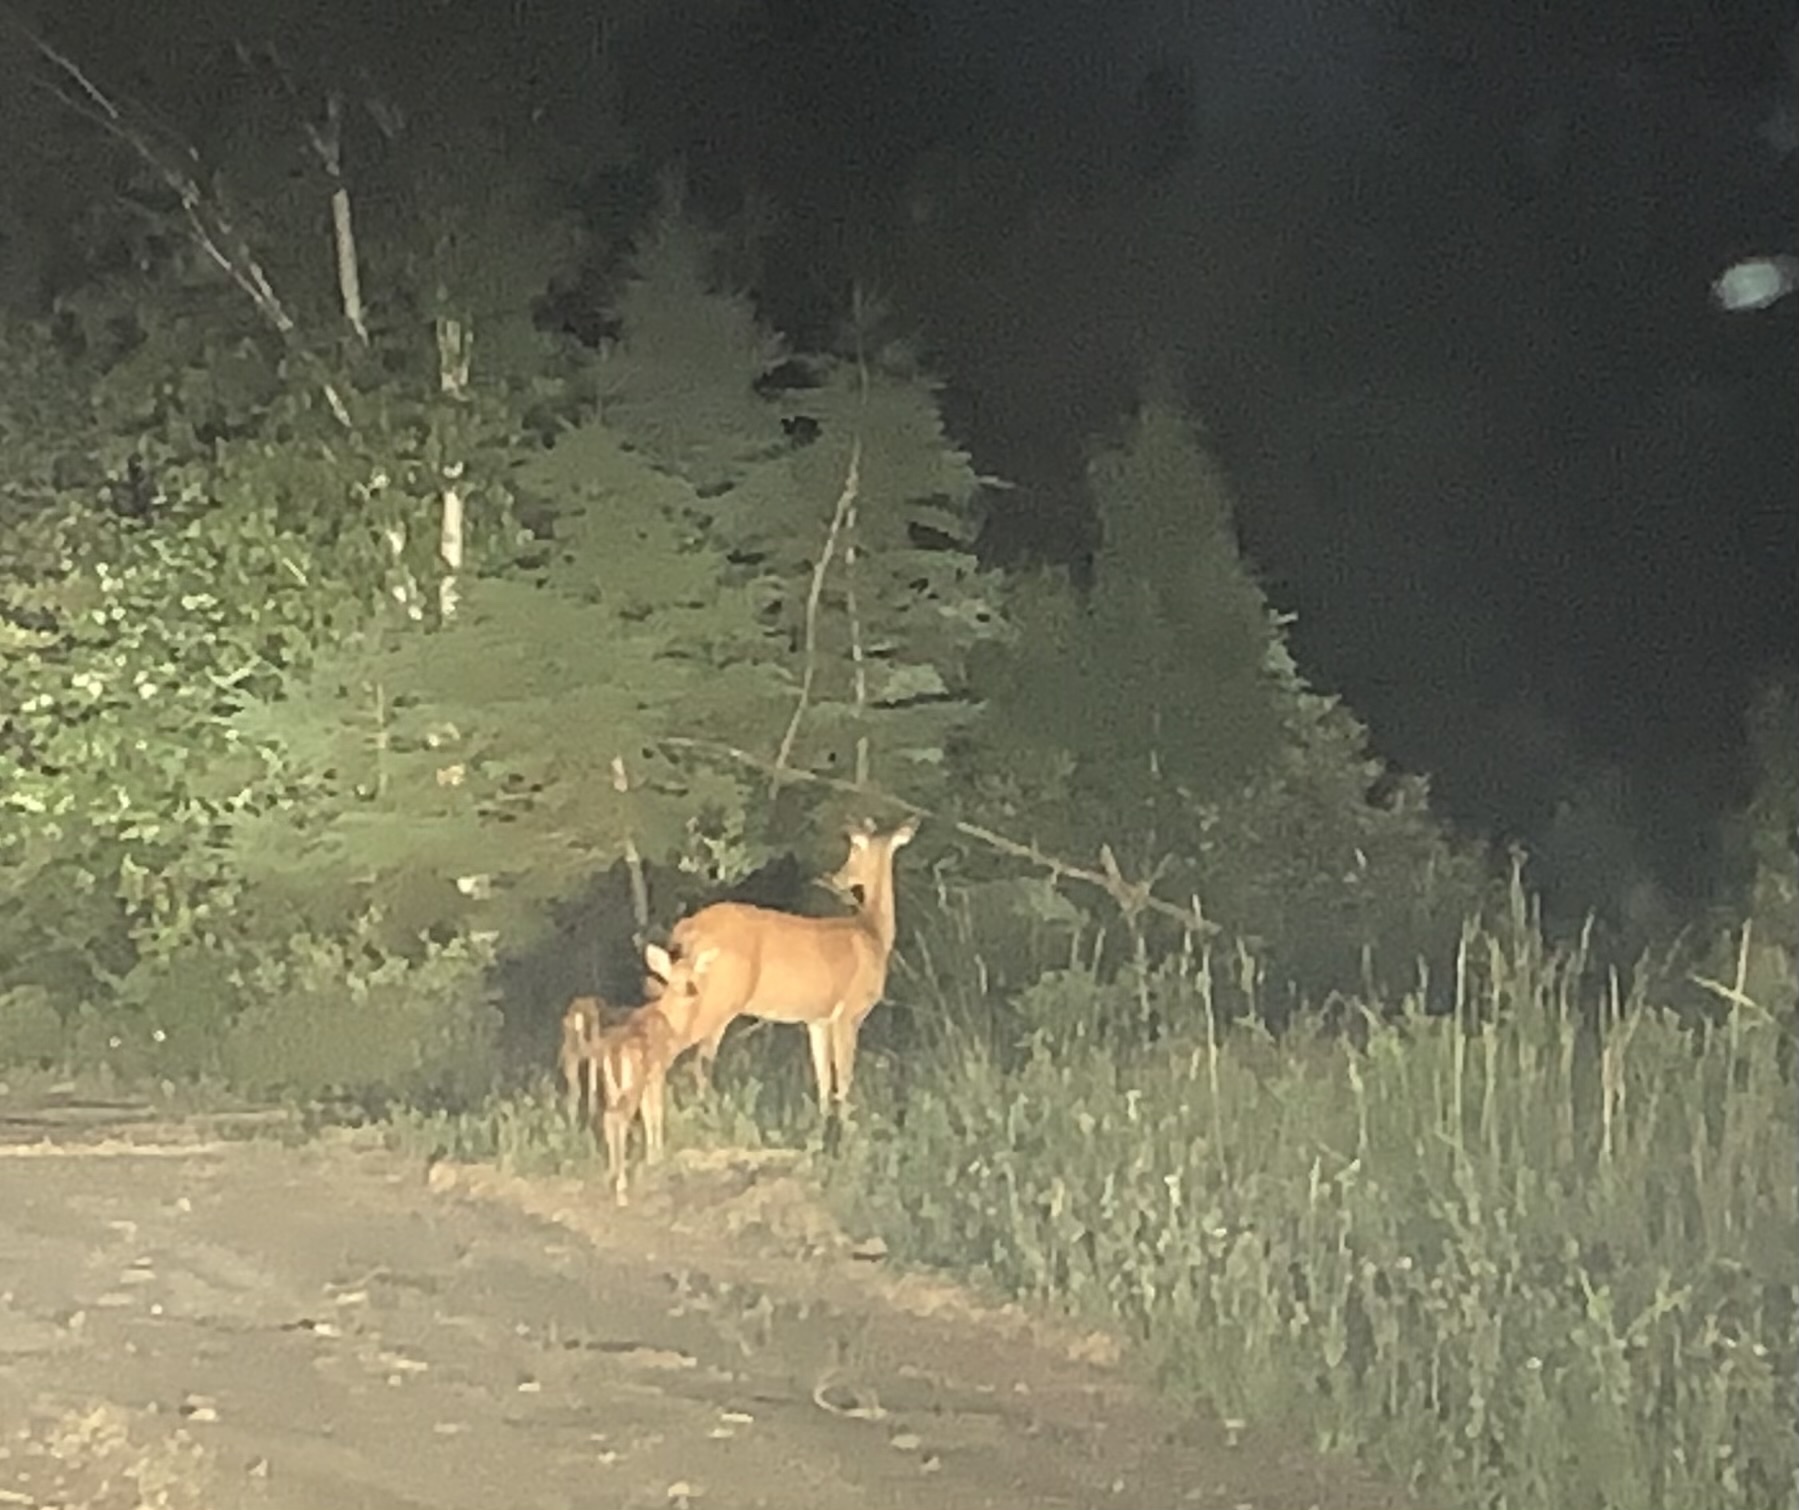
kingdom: Animalia
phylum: Chordata
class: Mammalia
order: Artiodactyla
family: Cervidae
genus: Odocoileus
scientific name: Odocoileus virginianus
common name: White-tailed deer
